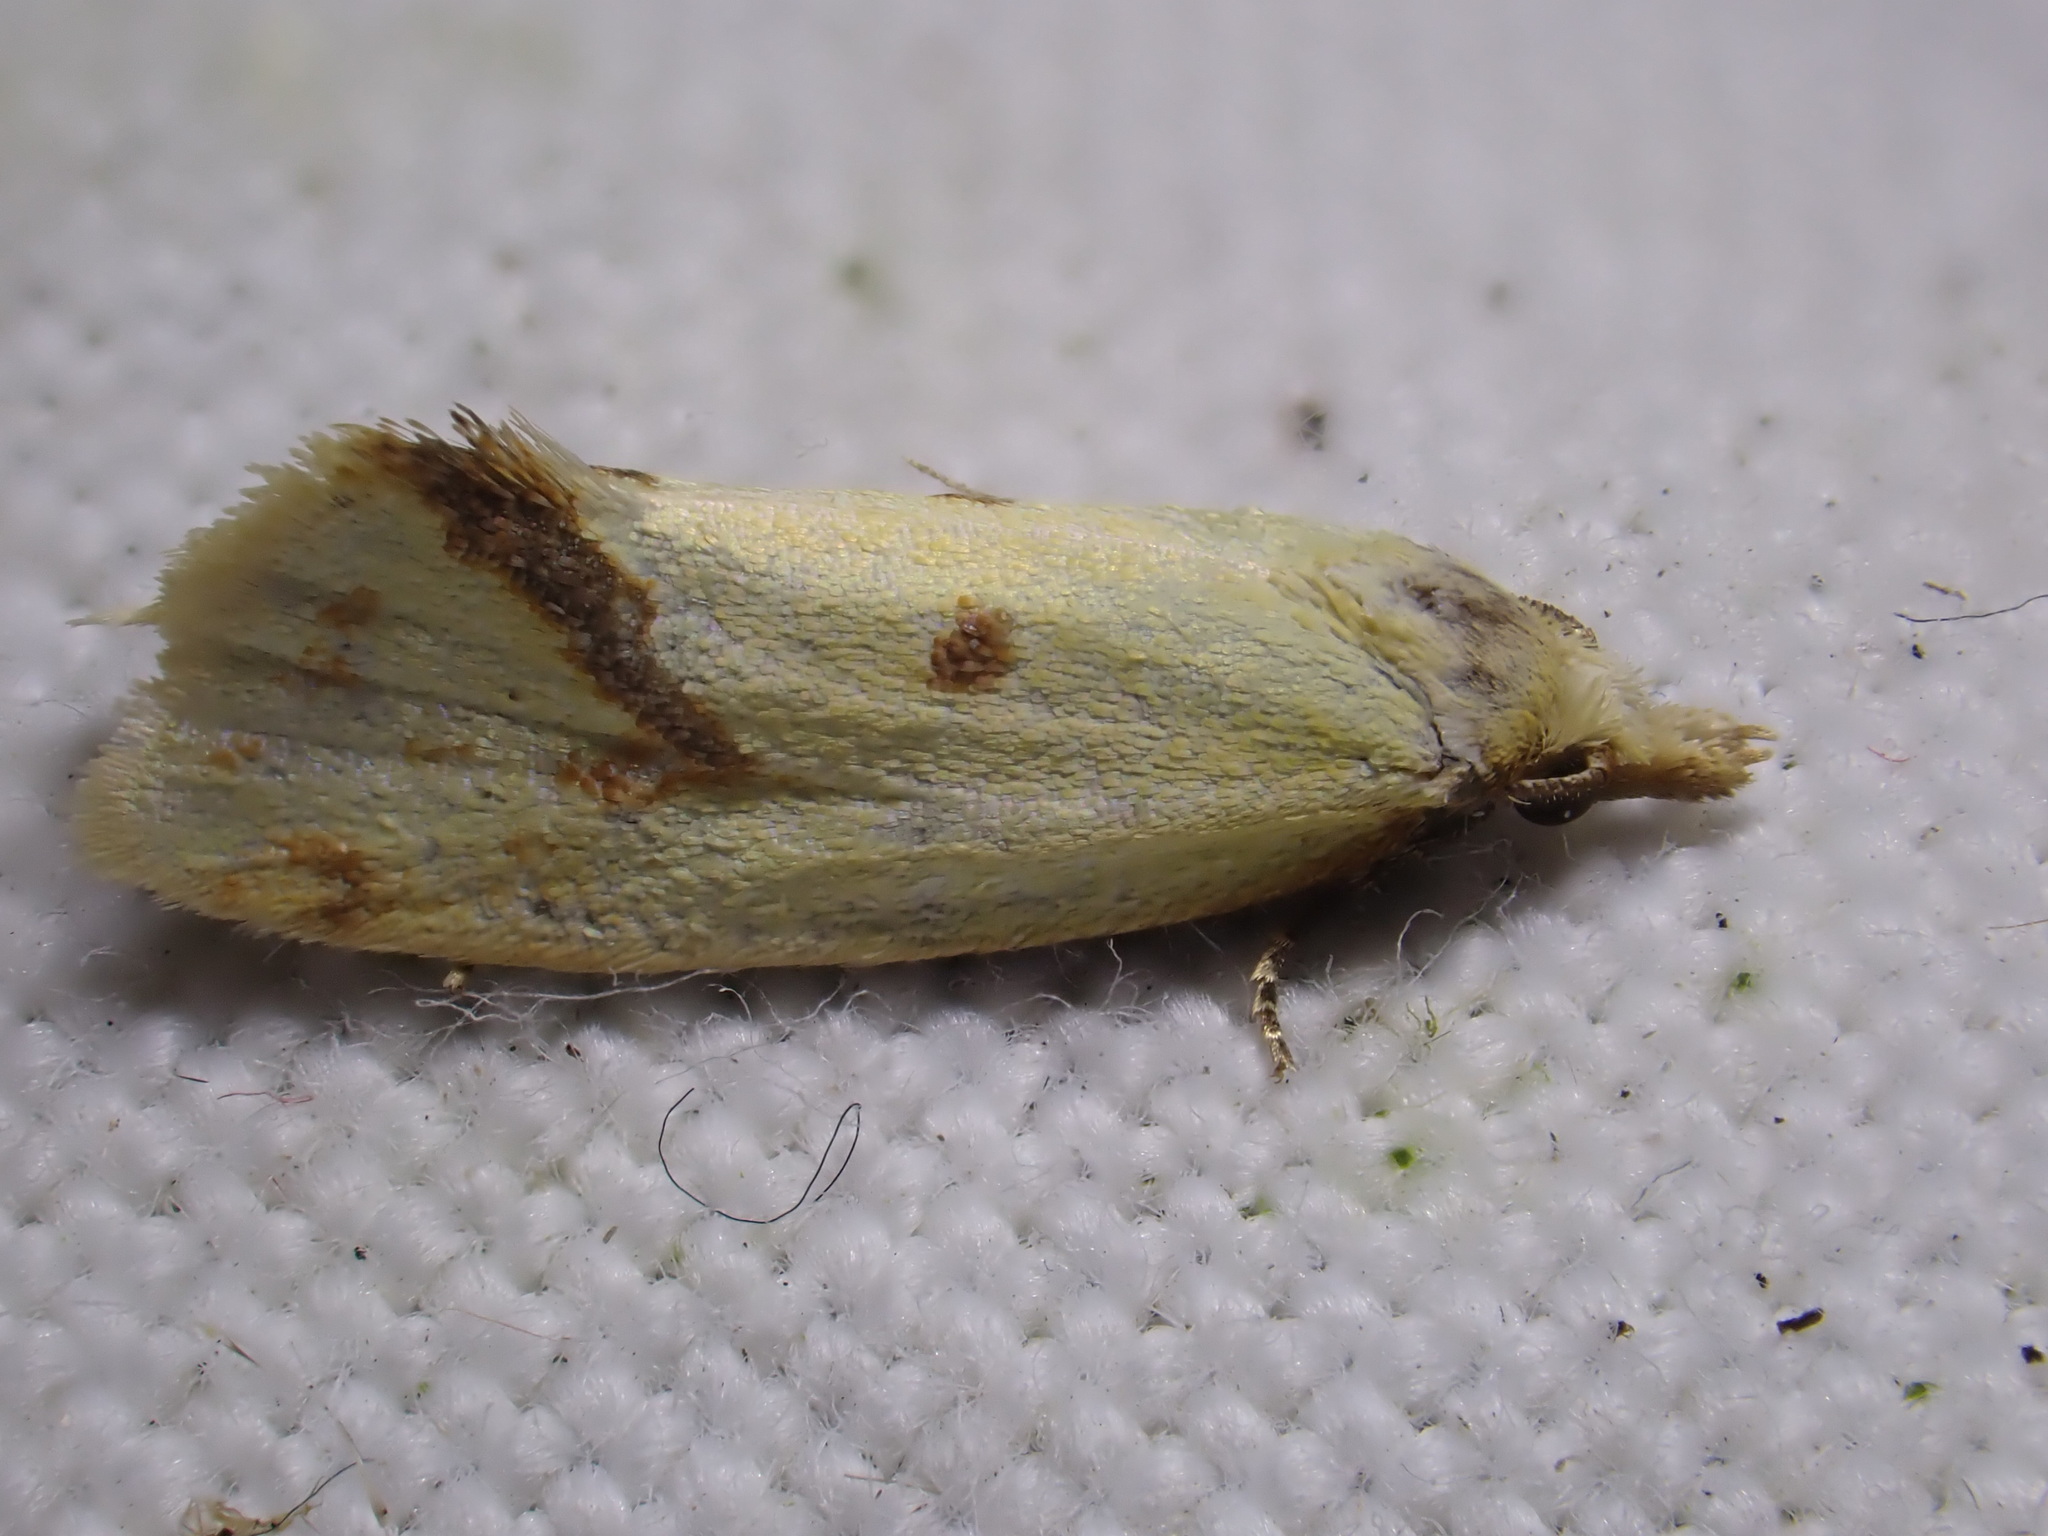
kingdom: Animalia
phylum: Arthropoda
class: Insecta
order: Lepidoptera
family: Tortricidae
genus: Agapeta
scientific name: Agapeta hamana
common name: Common yellow conch
